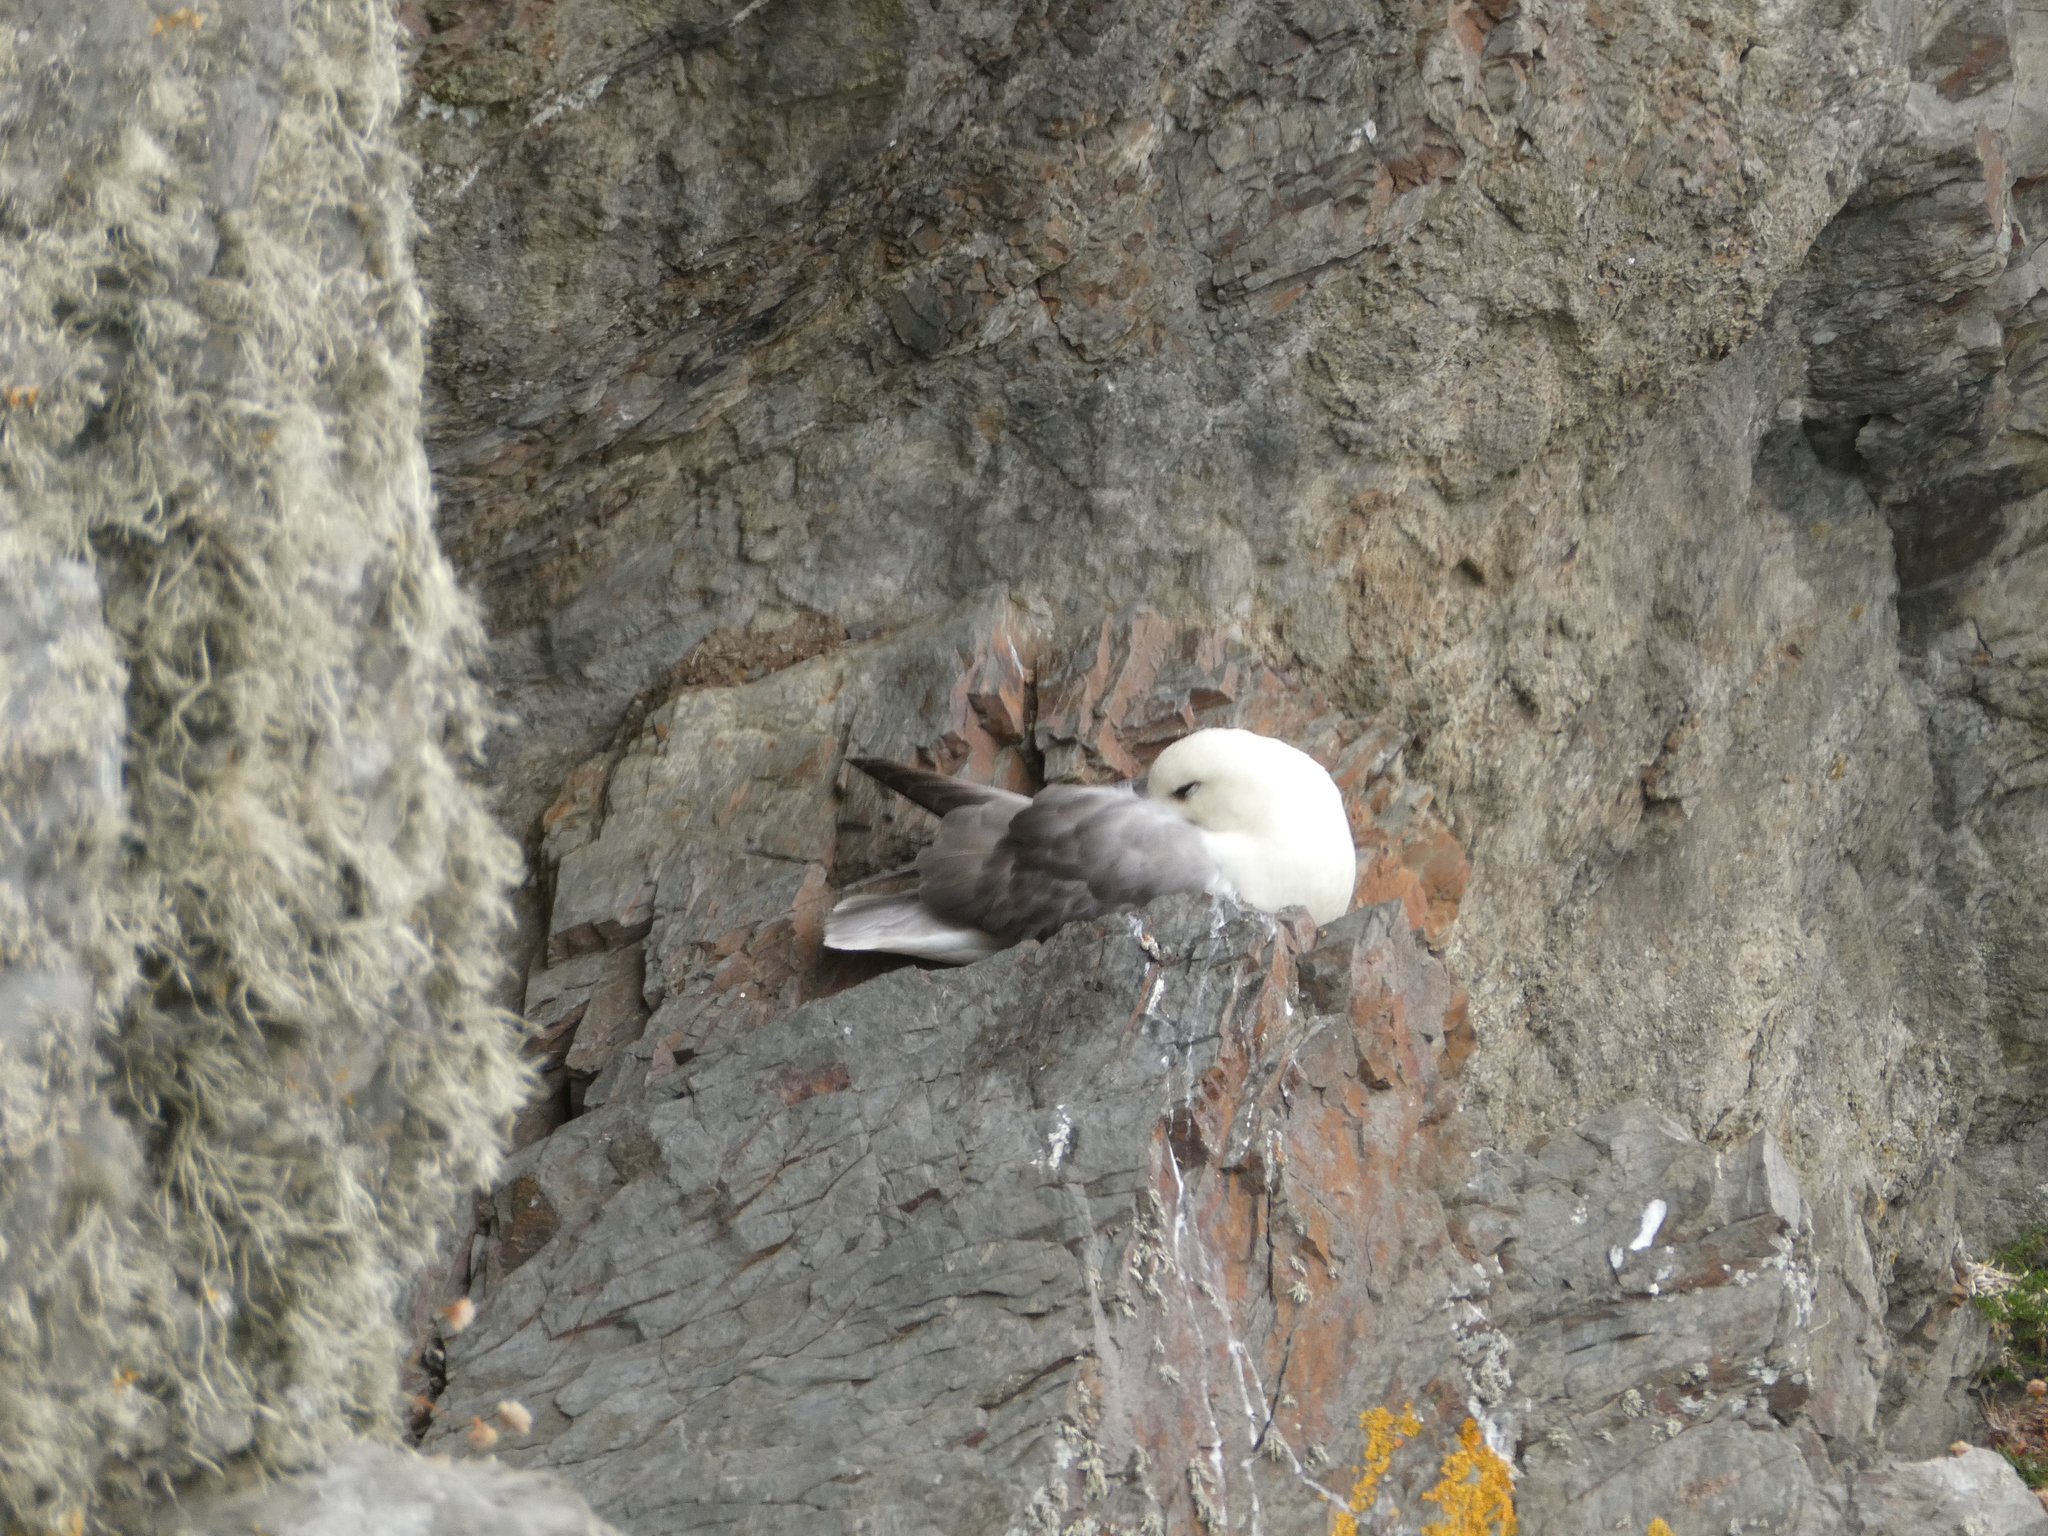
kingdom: Animalia
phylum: Chordata
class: Aves
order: Procellariiformes
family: Procellariidae
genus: Fulmarus
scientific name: Fulmarus glacialis
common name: Northern fulmar
